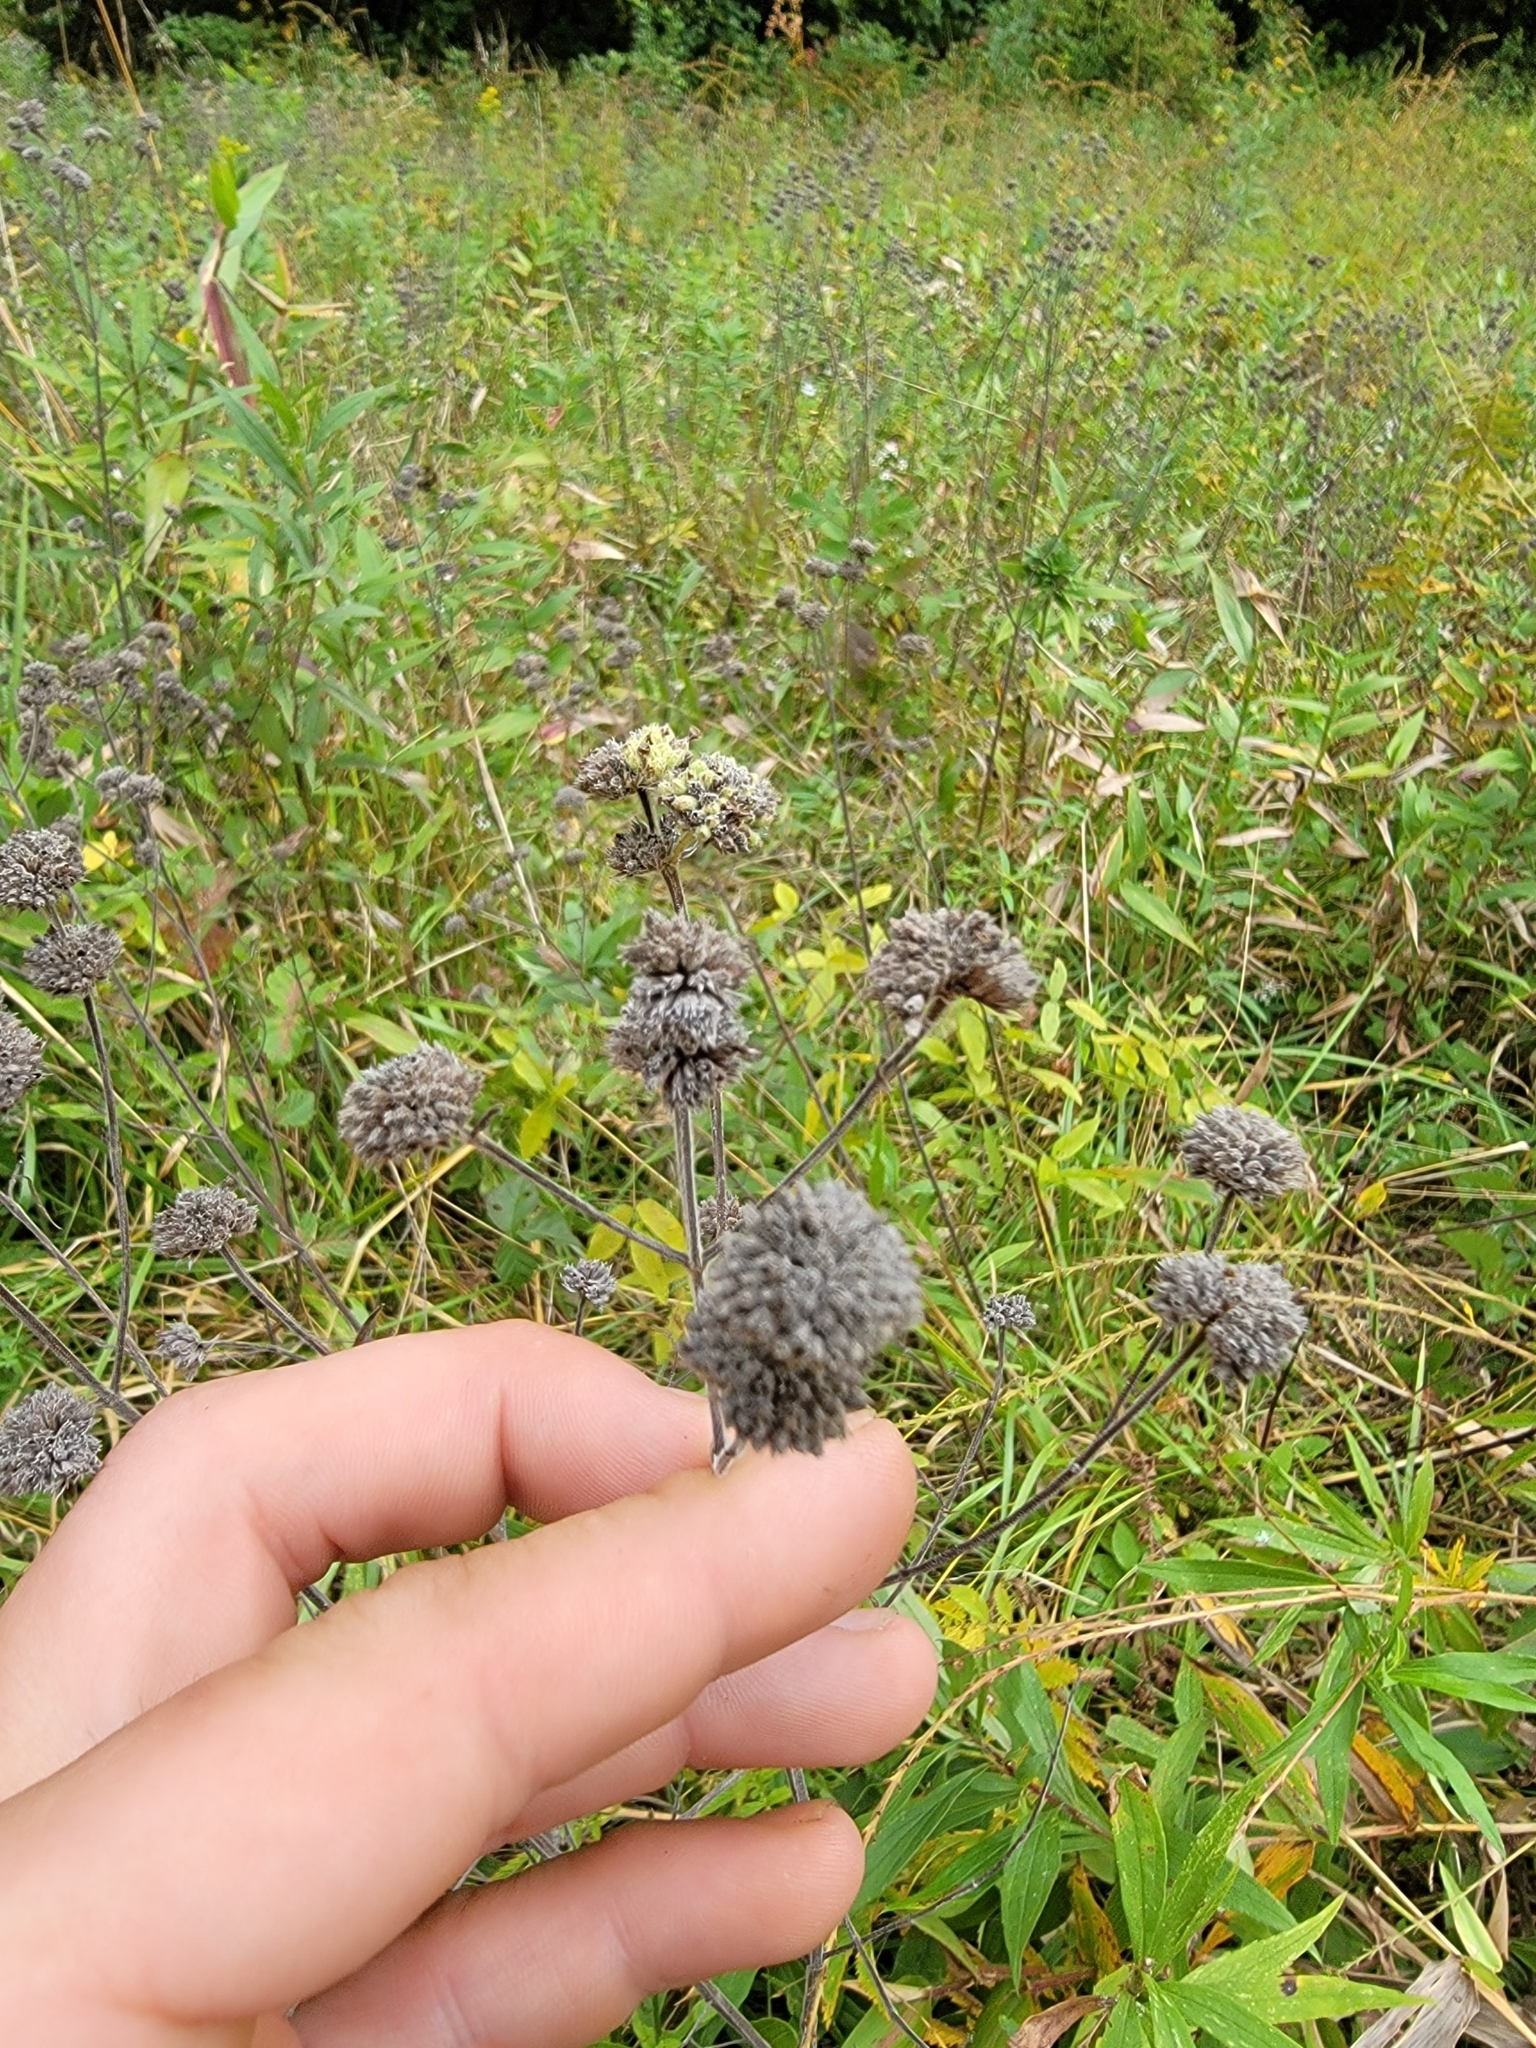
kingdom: Plantae
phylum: Tracheophyta
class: Magnoliopsida
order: Lamiales
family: Lamiaceae
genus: Monarda
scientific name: Monarda fistulosa
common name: Purple beebalm
